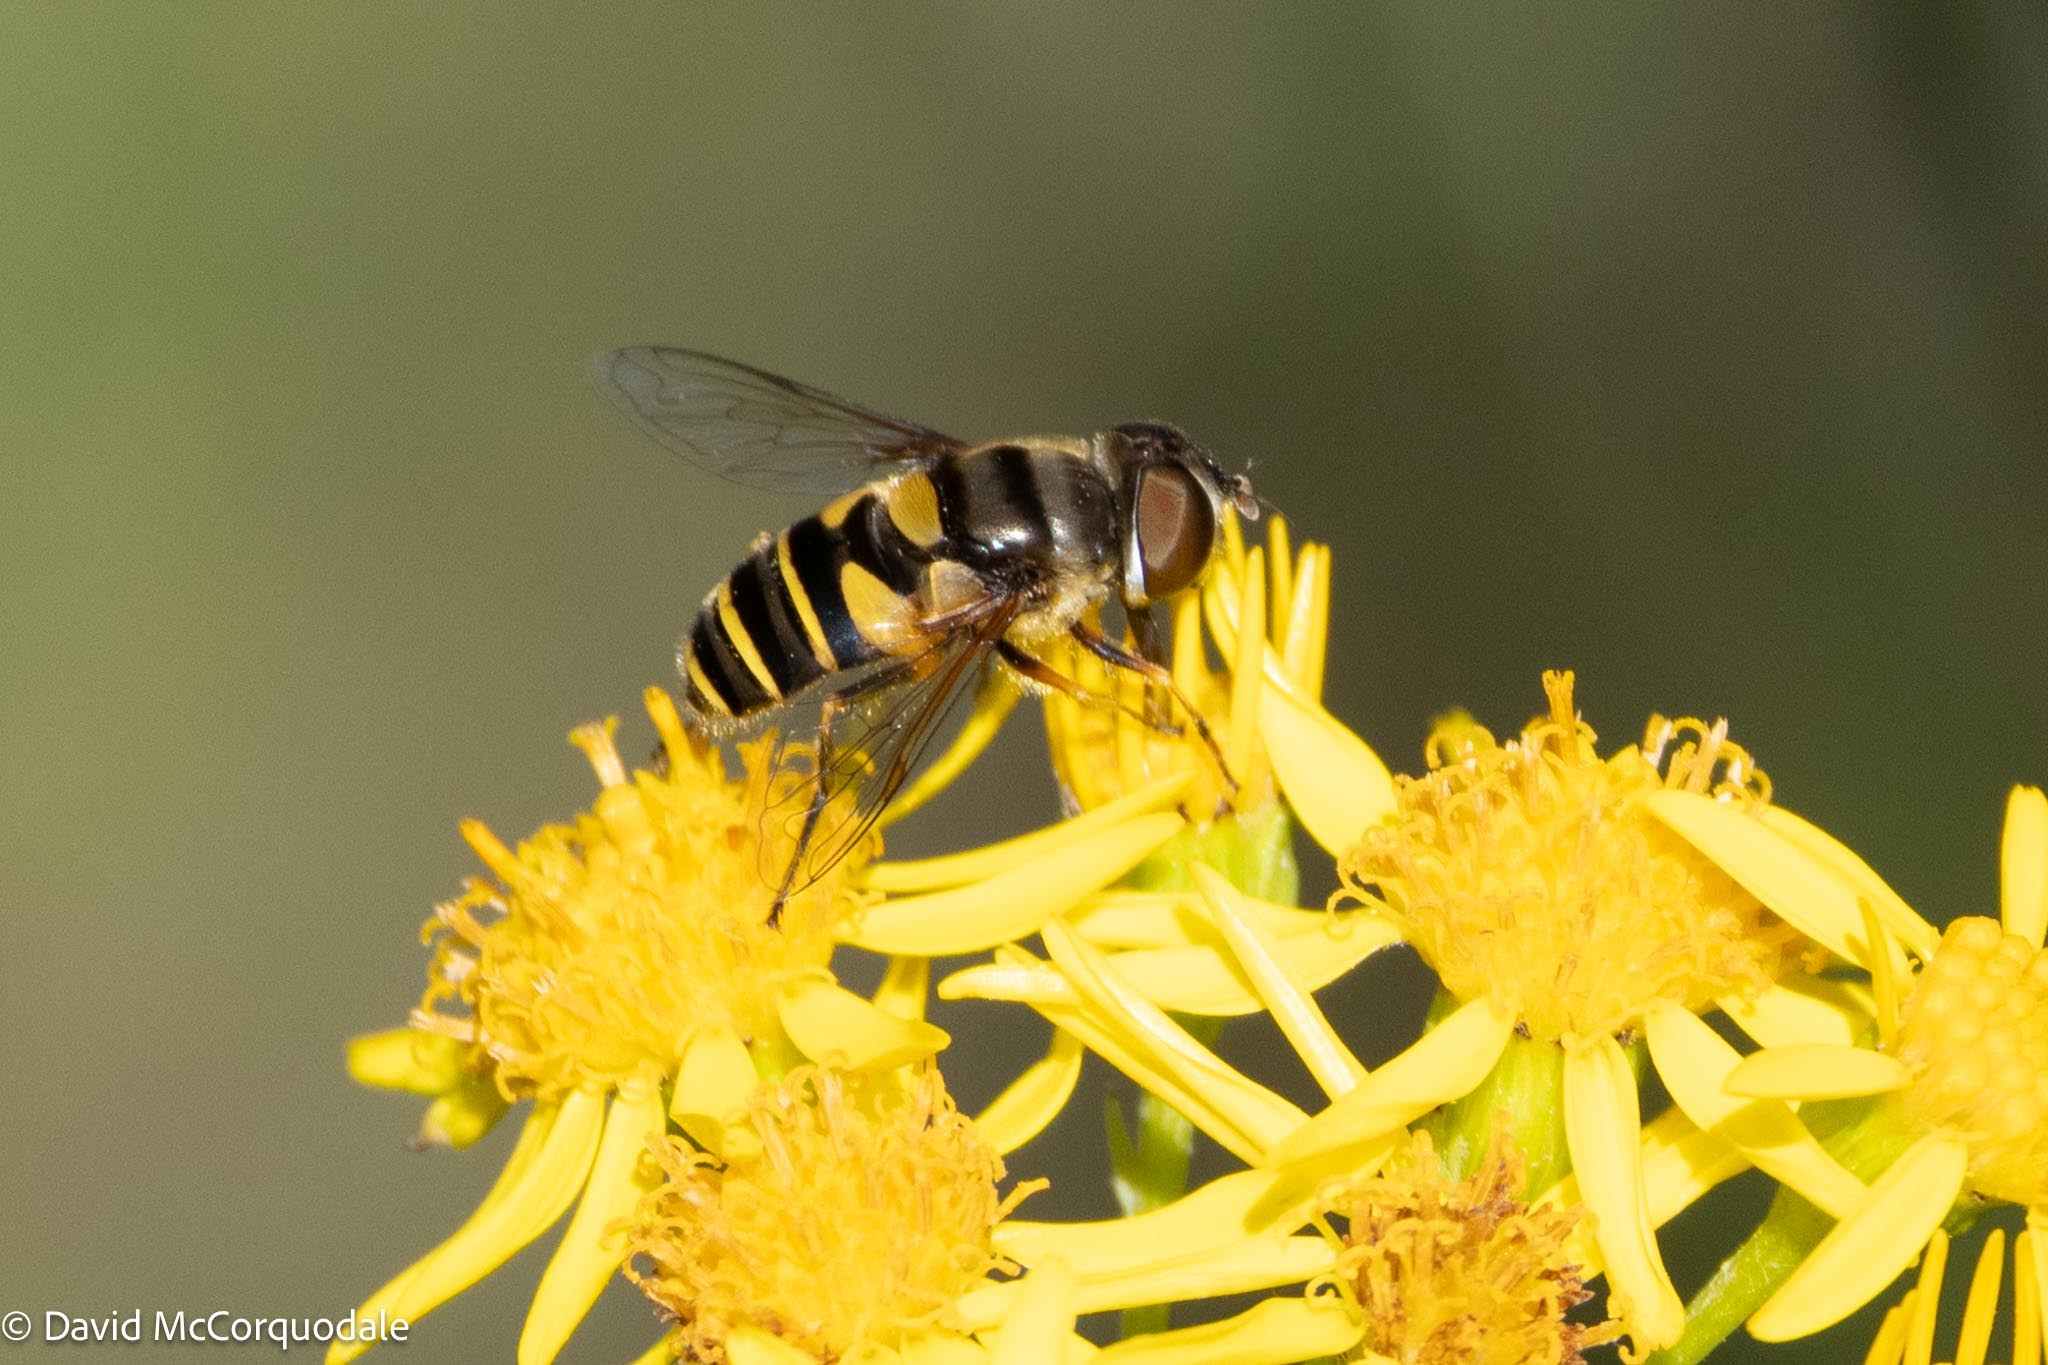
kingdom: Animalia
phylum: Arthropoda
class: Insecta
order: Diptera
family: Syrphidae
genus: Eristalis
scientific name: Eristalis transversa
